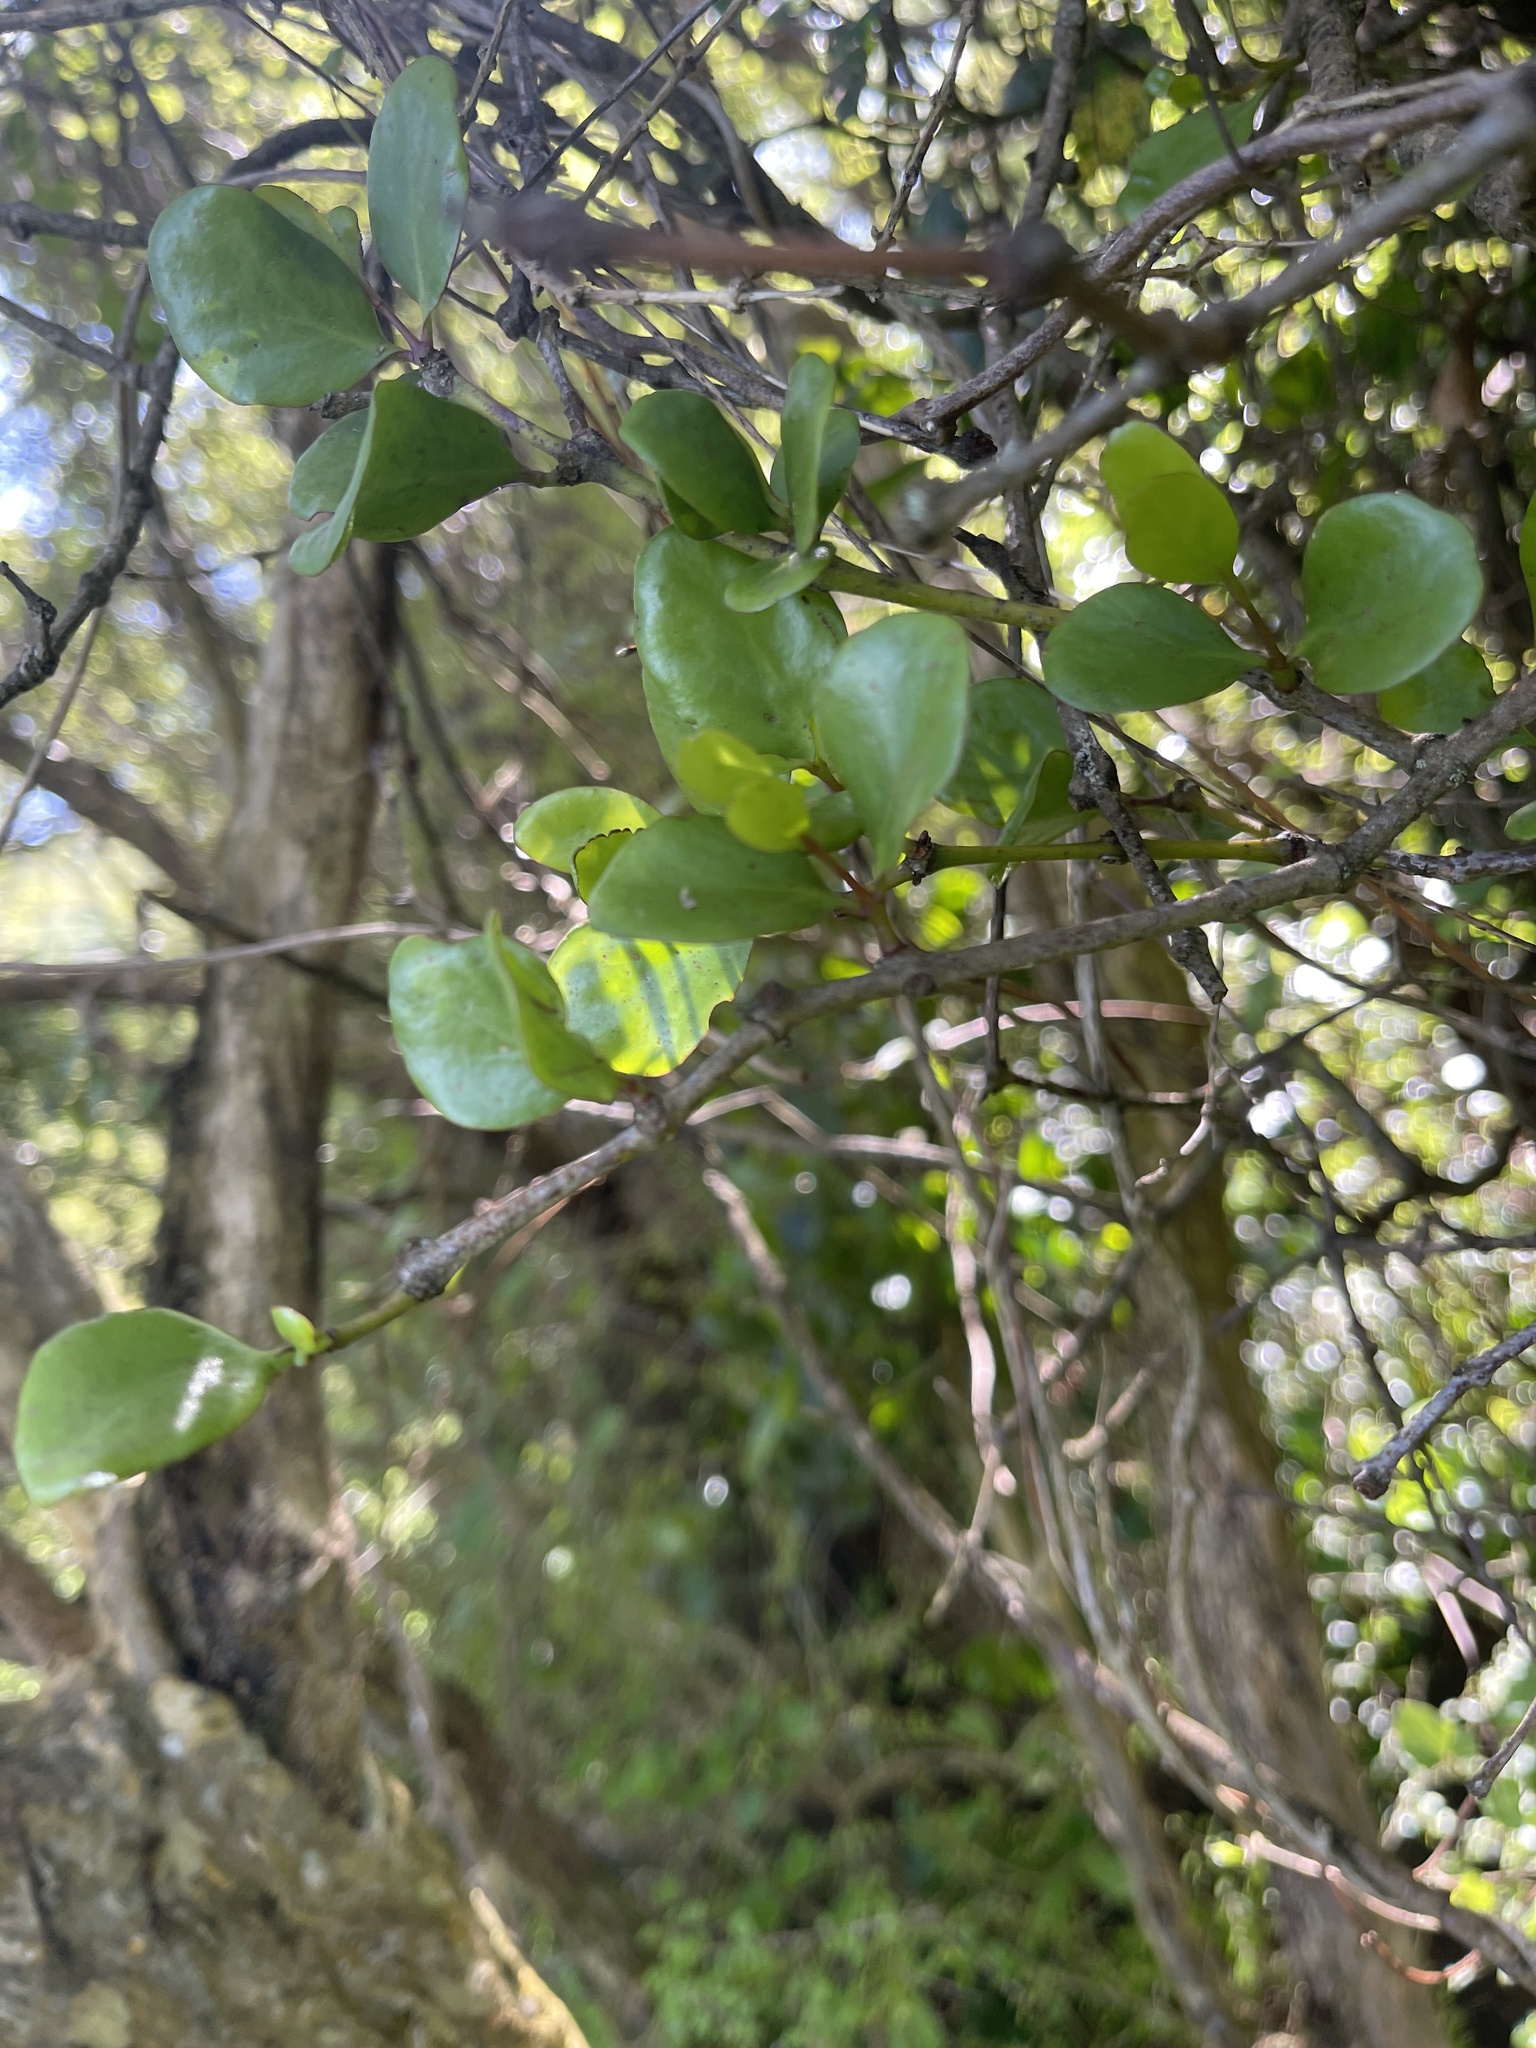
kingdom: Plantae
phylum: Tracheophyta
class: Magnoliopsida
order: Santalales
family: Loranthaceae
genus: Ileostylus
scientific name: Ileostylus micranthus
